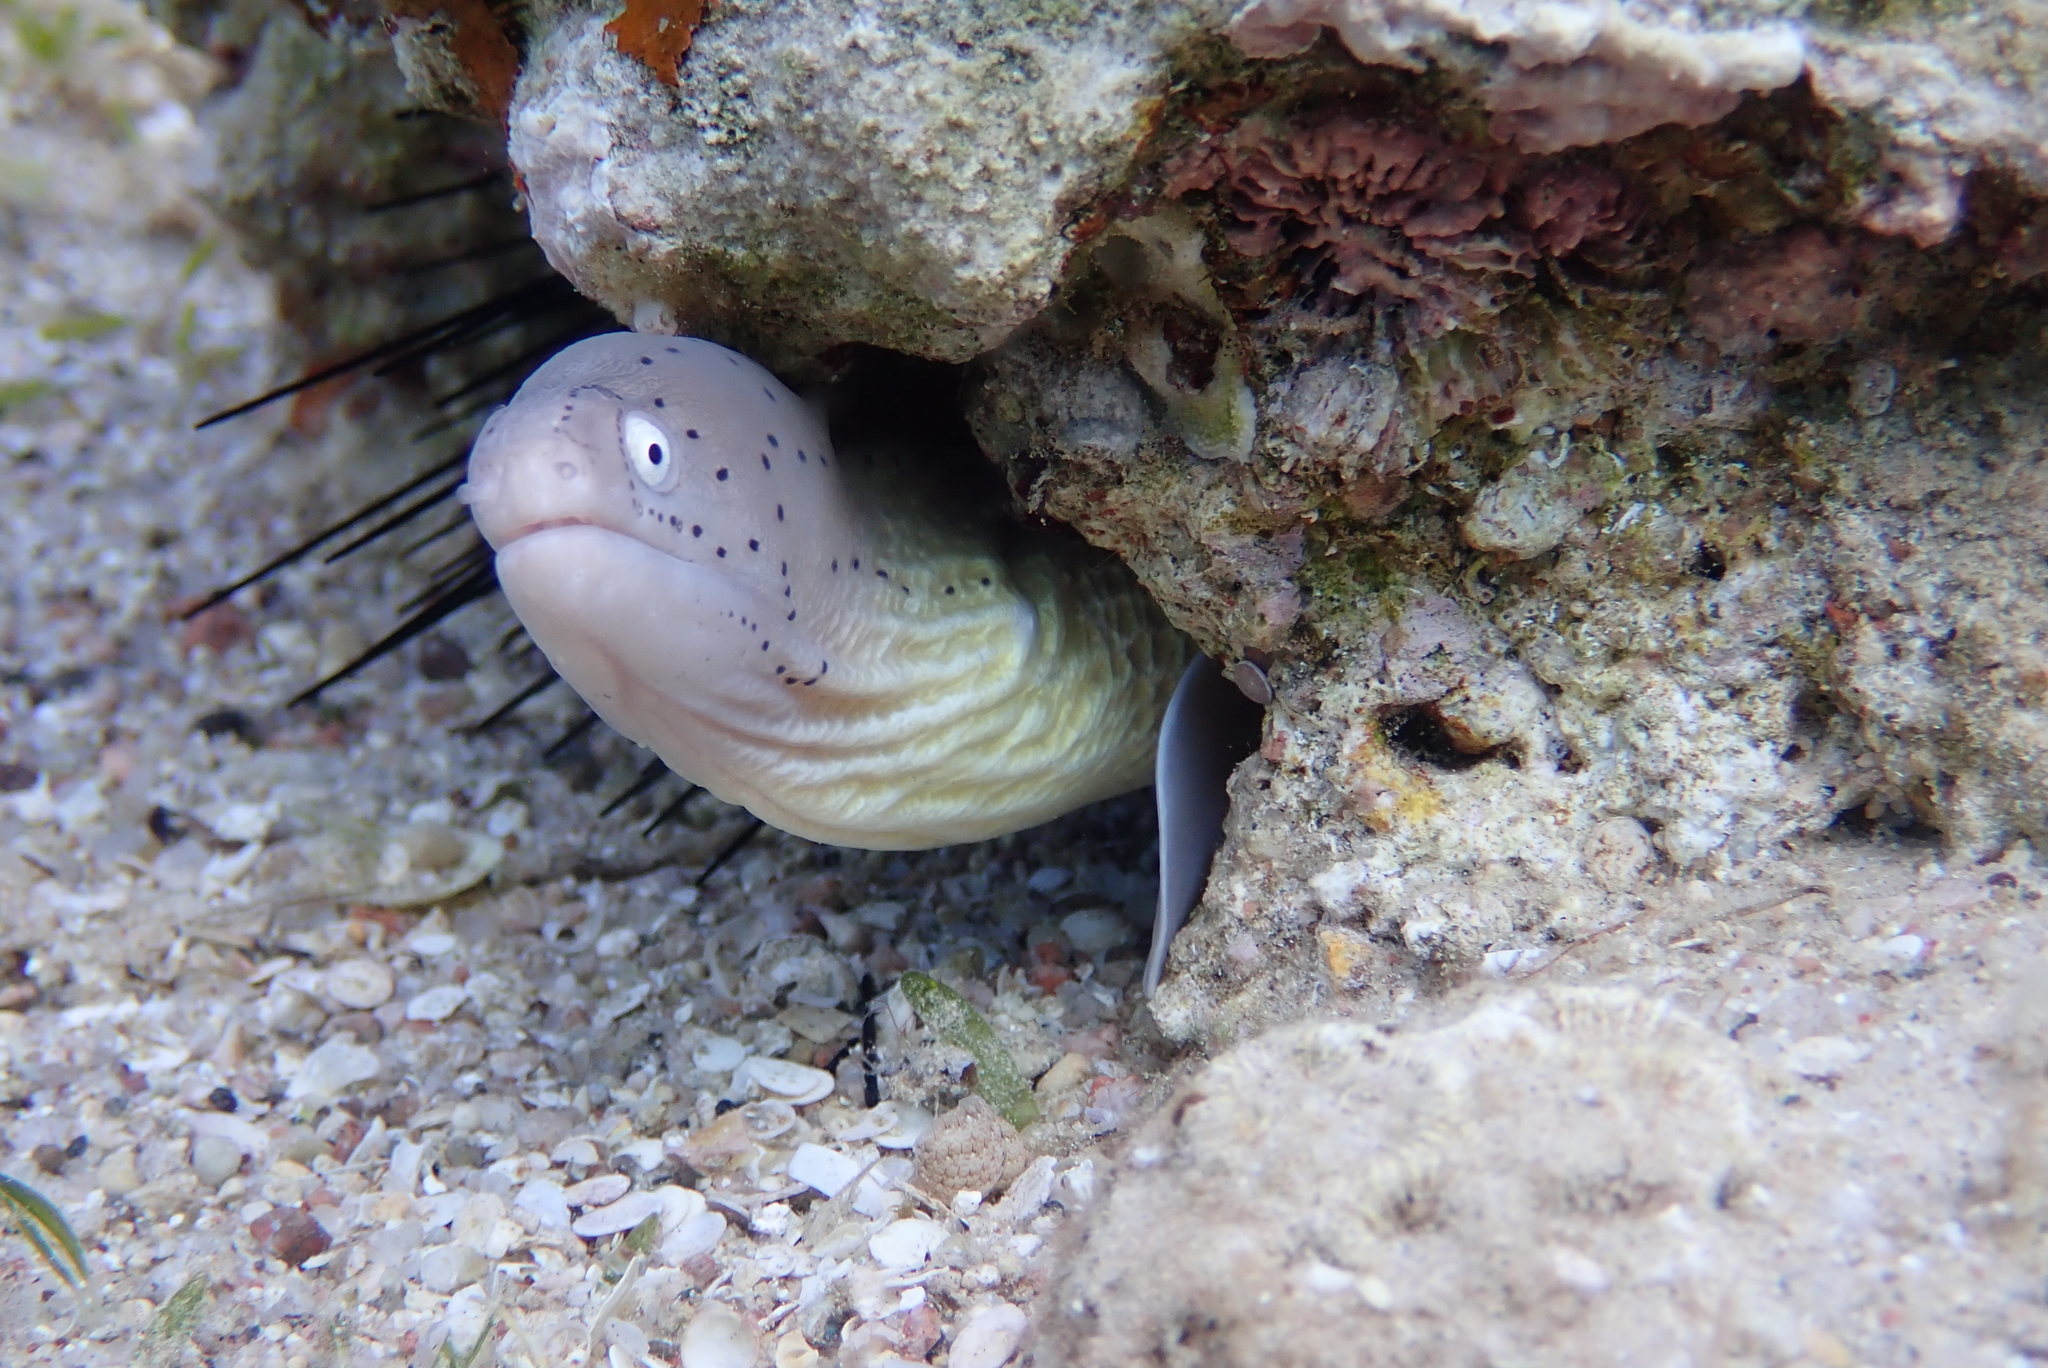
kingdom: Animalia
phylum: Chordata
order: Anguilliformes
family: Muraenidae
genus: Gymnothorax
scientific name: Gymnothorax griseus
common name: Geometric moray
